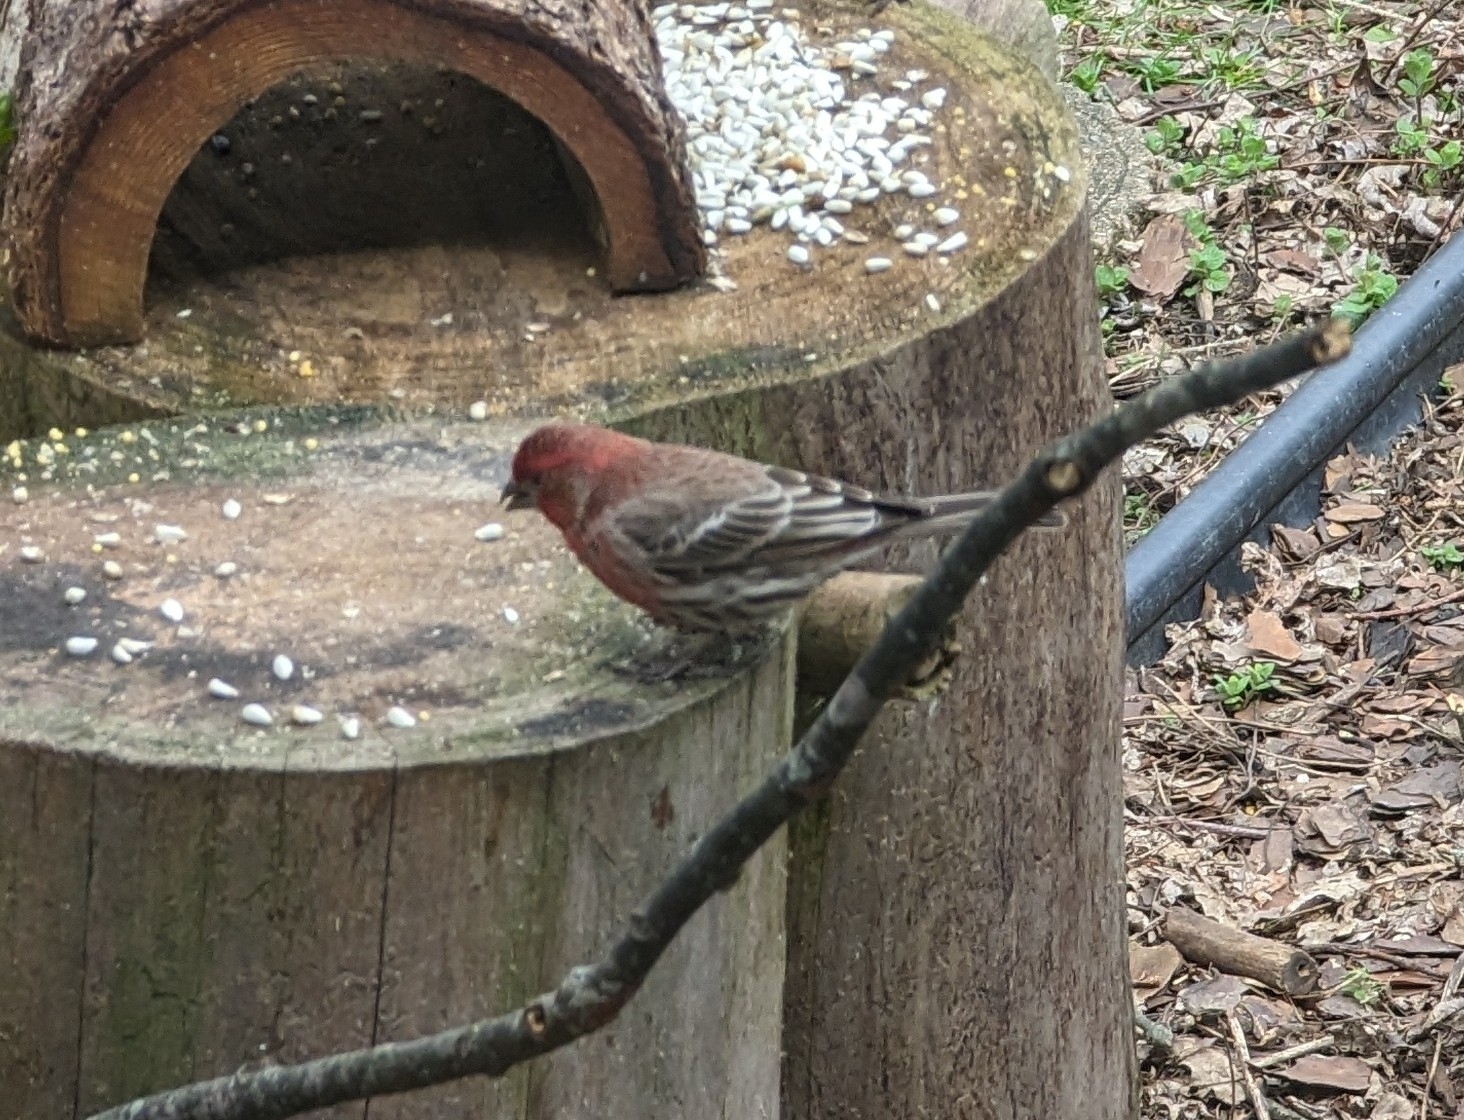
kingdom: Animalia
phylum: Chordata
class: Aves
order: Passeriformes
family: Fringillidae
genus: Haemorhous
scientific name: Haemorhous mexicanus
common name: House finch
